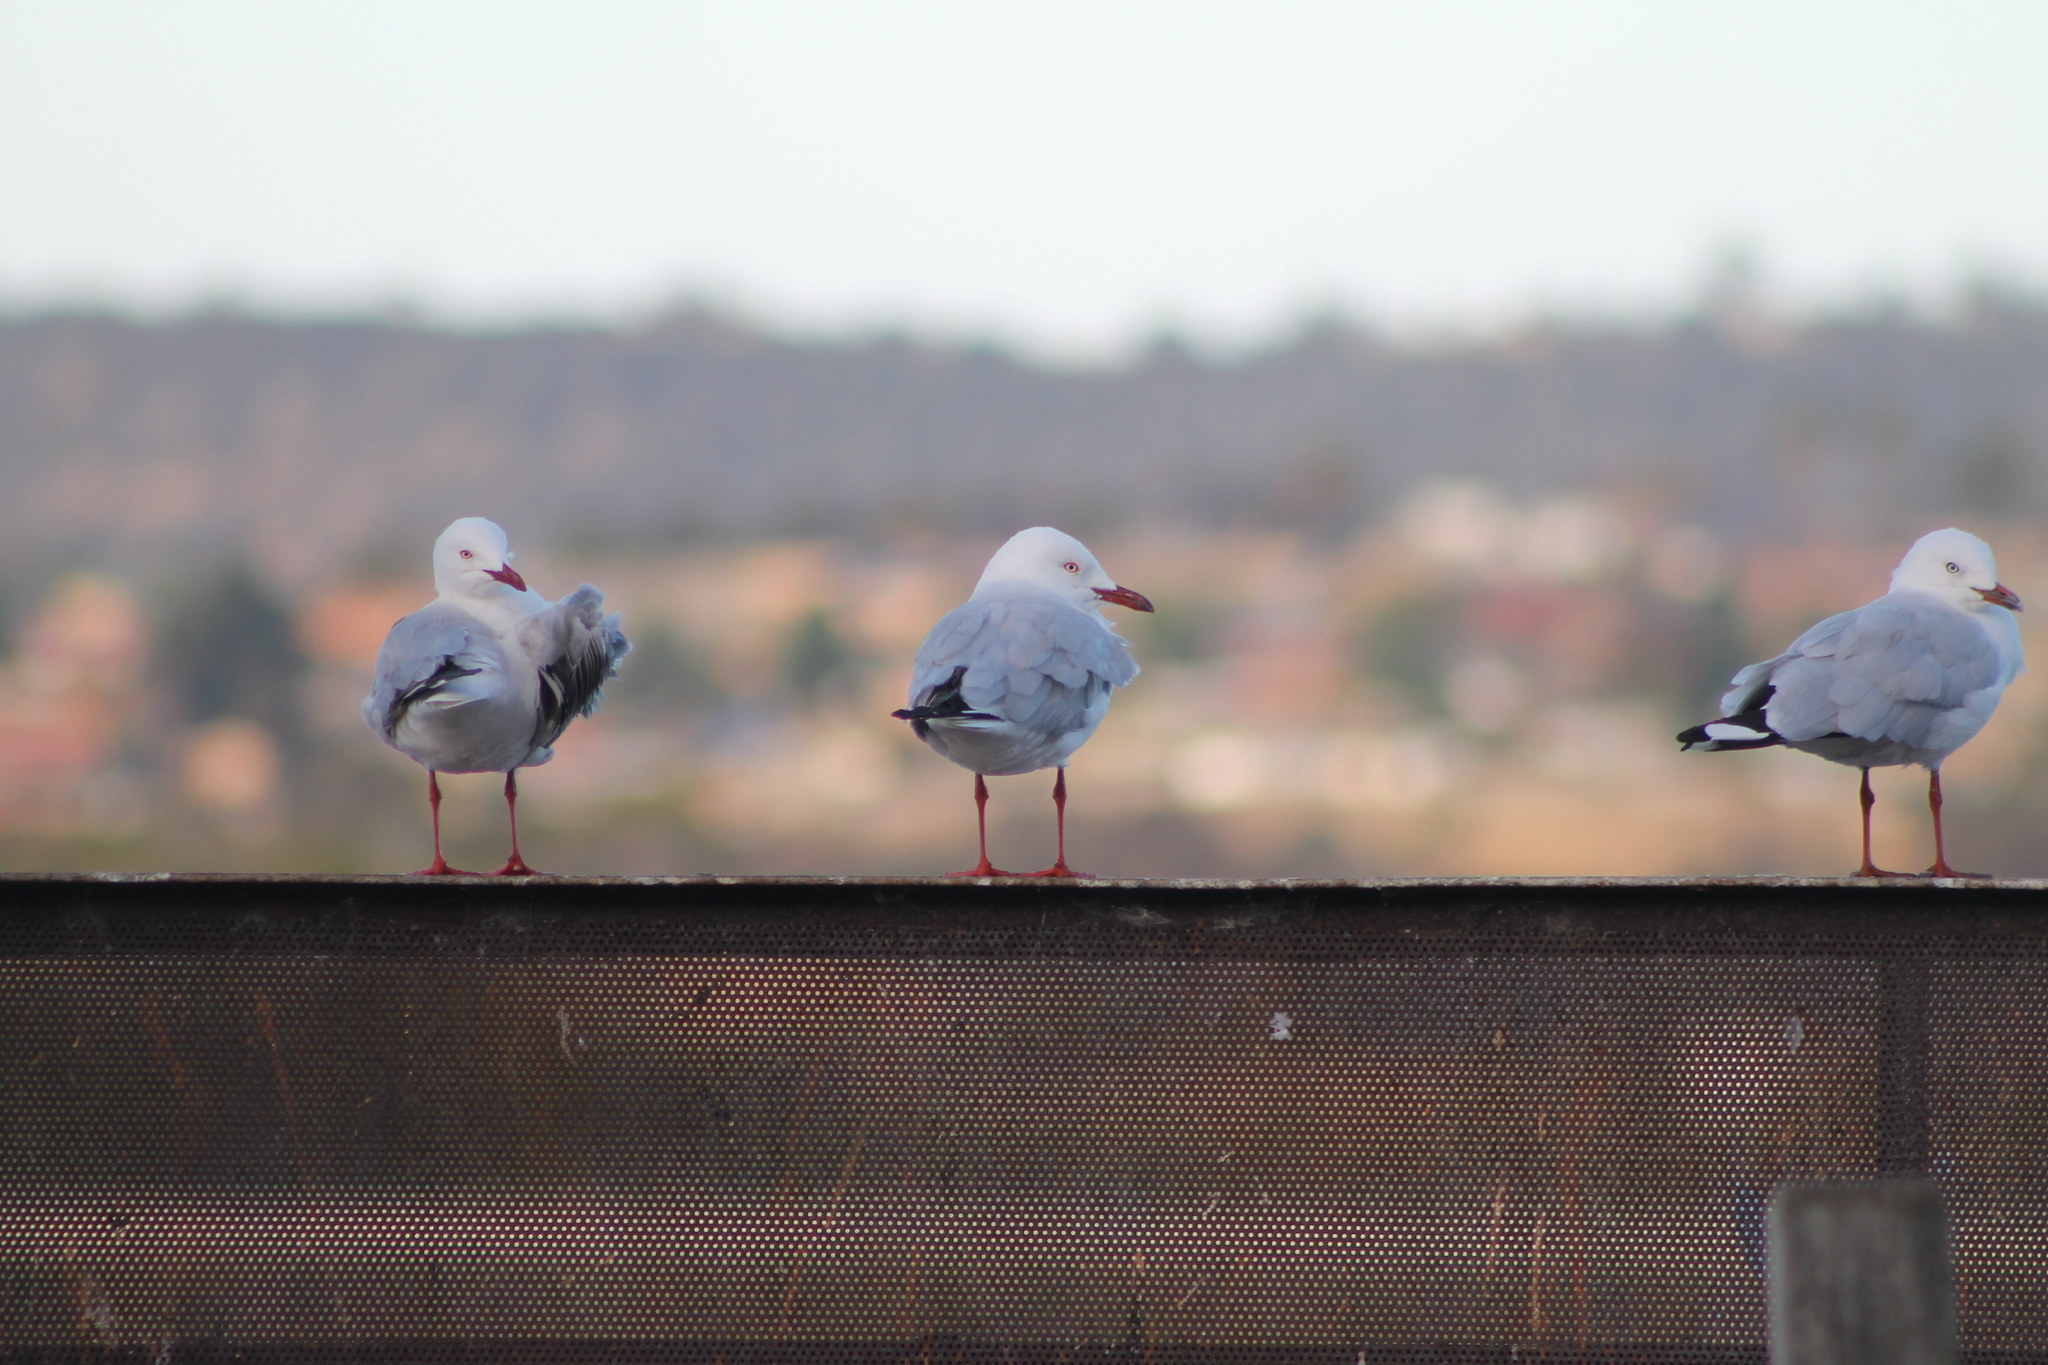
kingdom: Animalia
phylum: Chordata
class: Aves
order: Charadriiformes
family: Laridae
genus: Chroicocephalus
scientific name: Chroicocephalus novaehollandiae
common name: Silver gull
